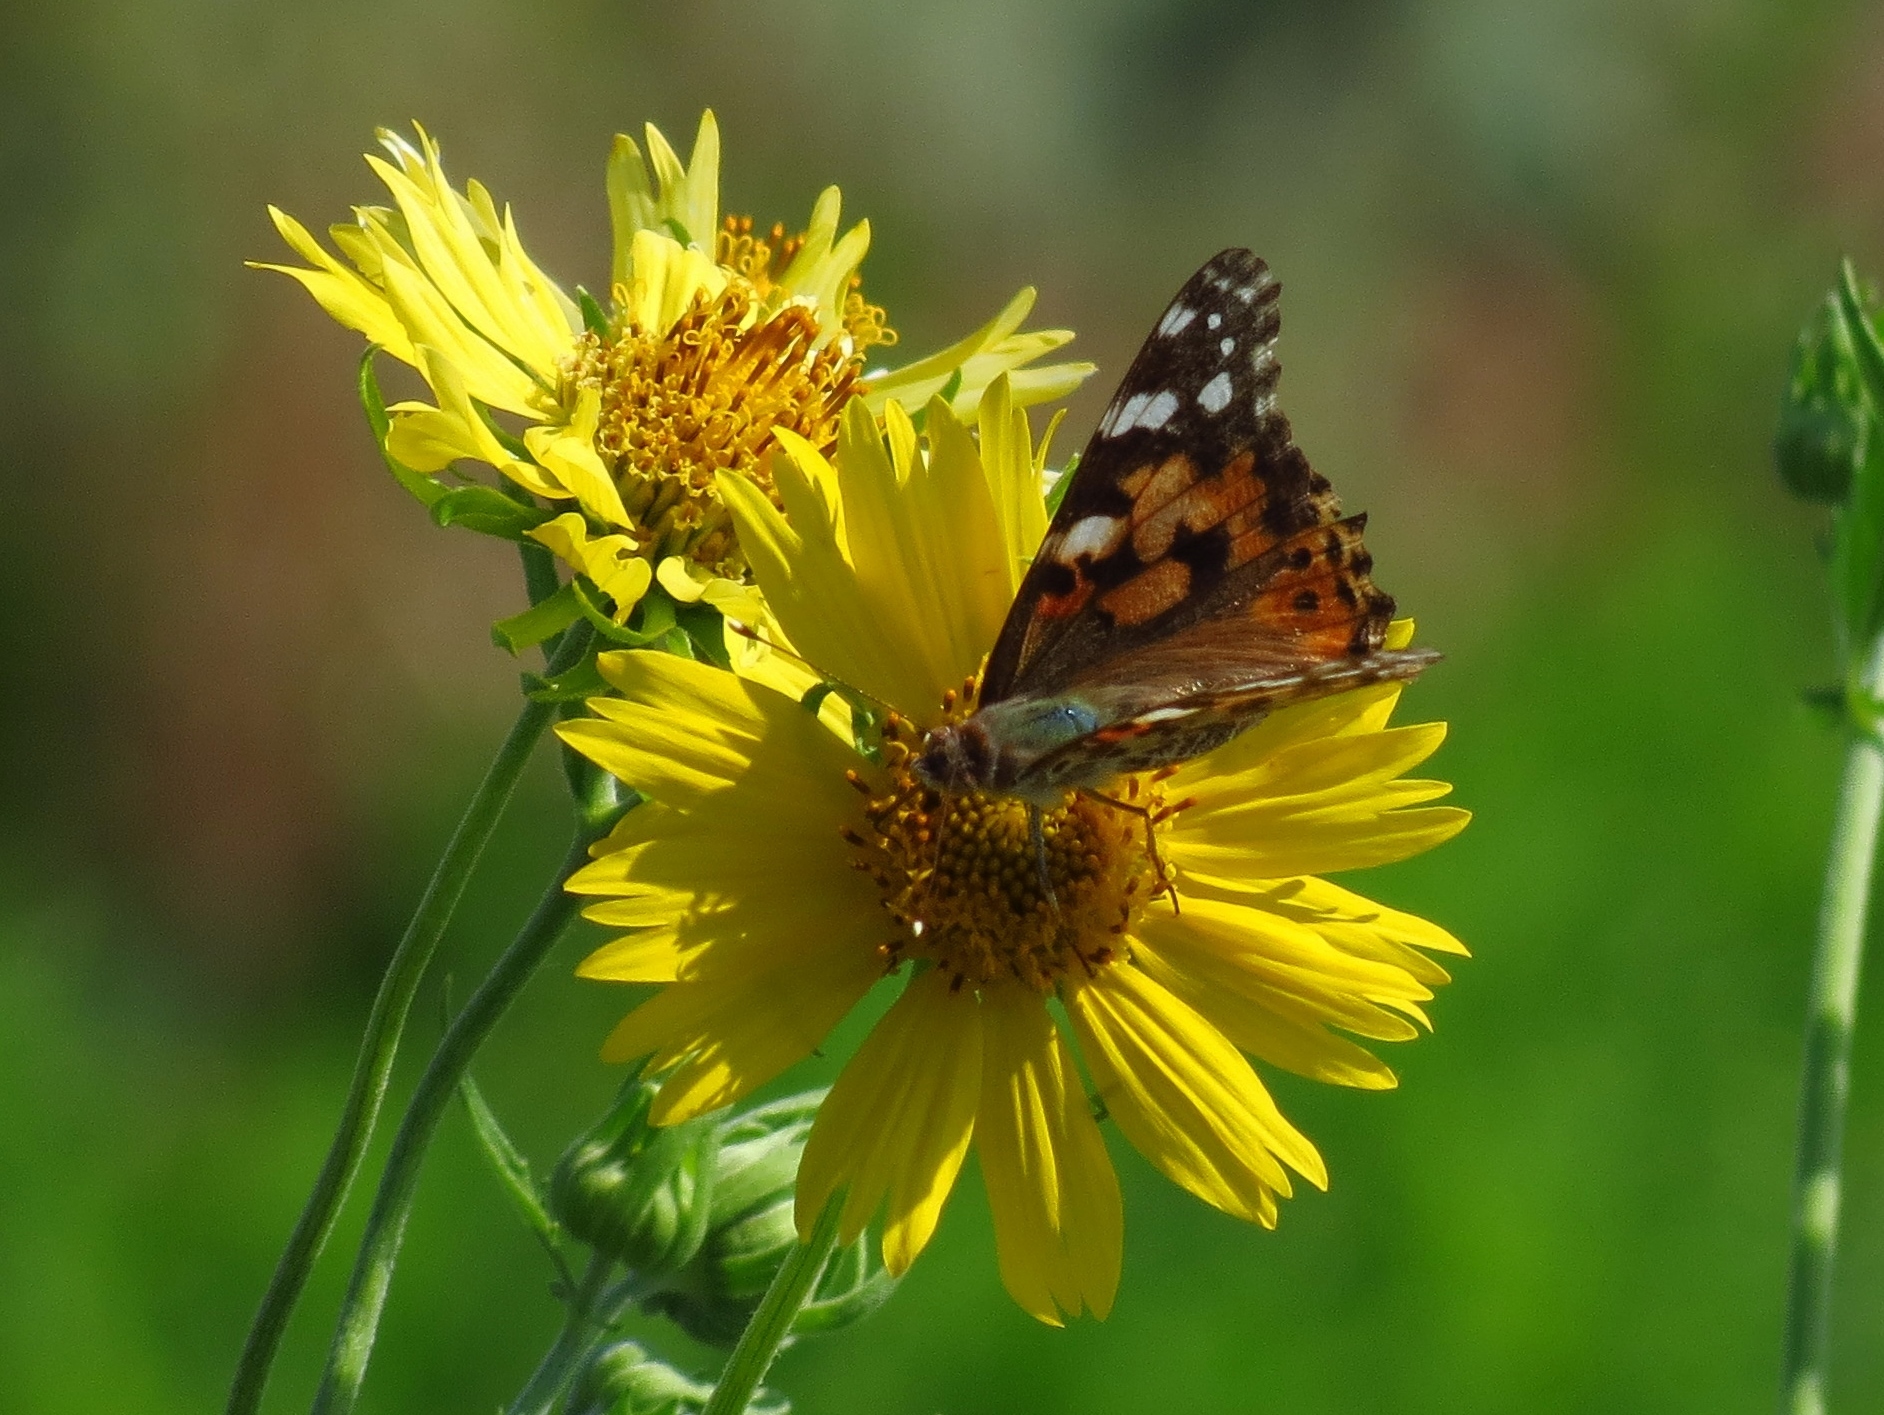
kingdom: Animalia
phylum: Arthropoda
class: Insecta
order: Lepidoptera
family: Nymphalidae
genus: Vanessa
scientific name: Vanessa cardui
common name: Painted lady
